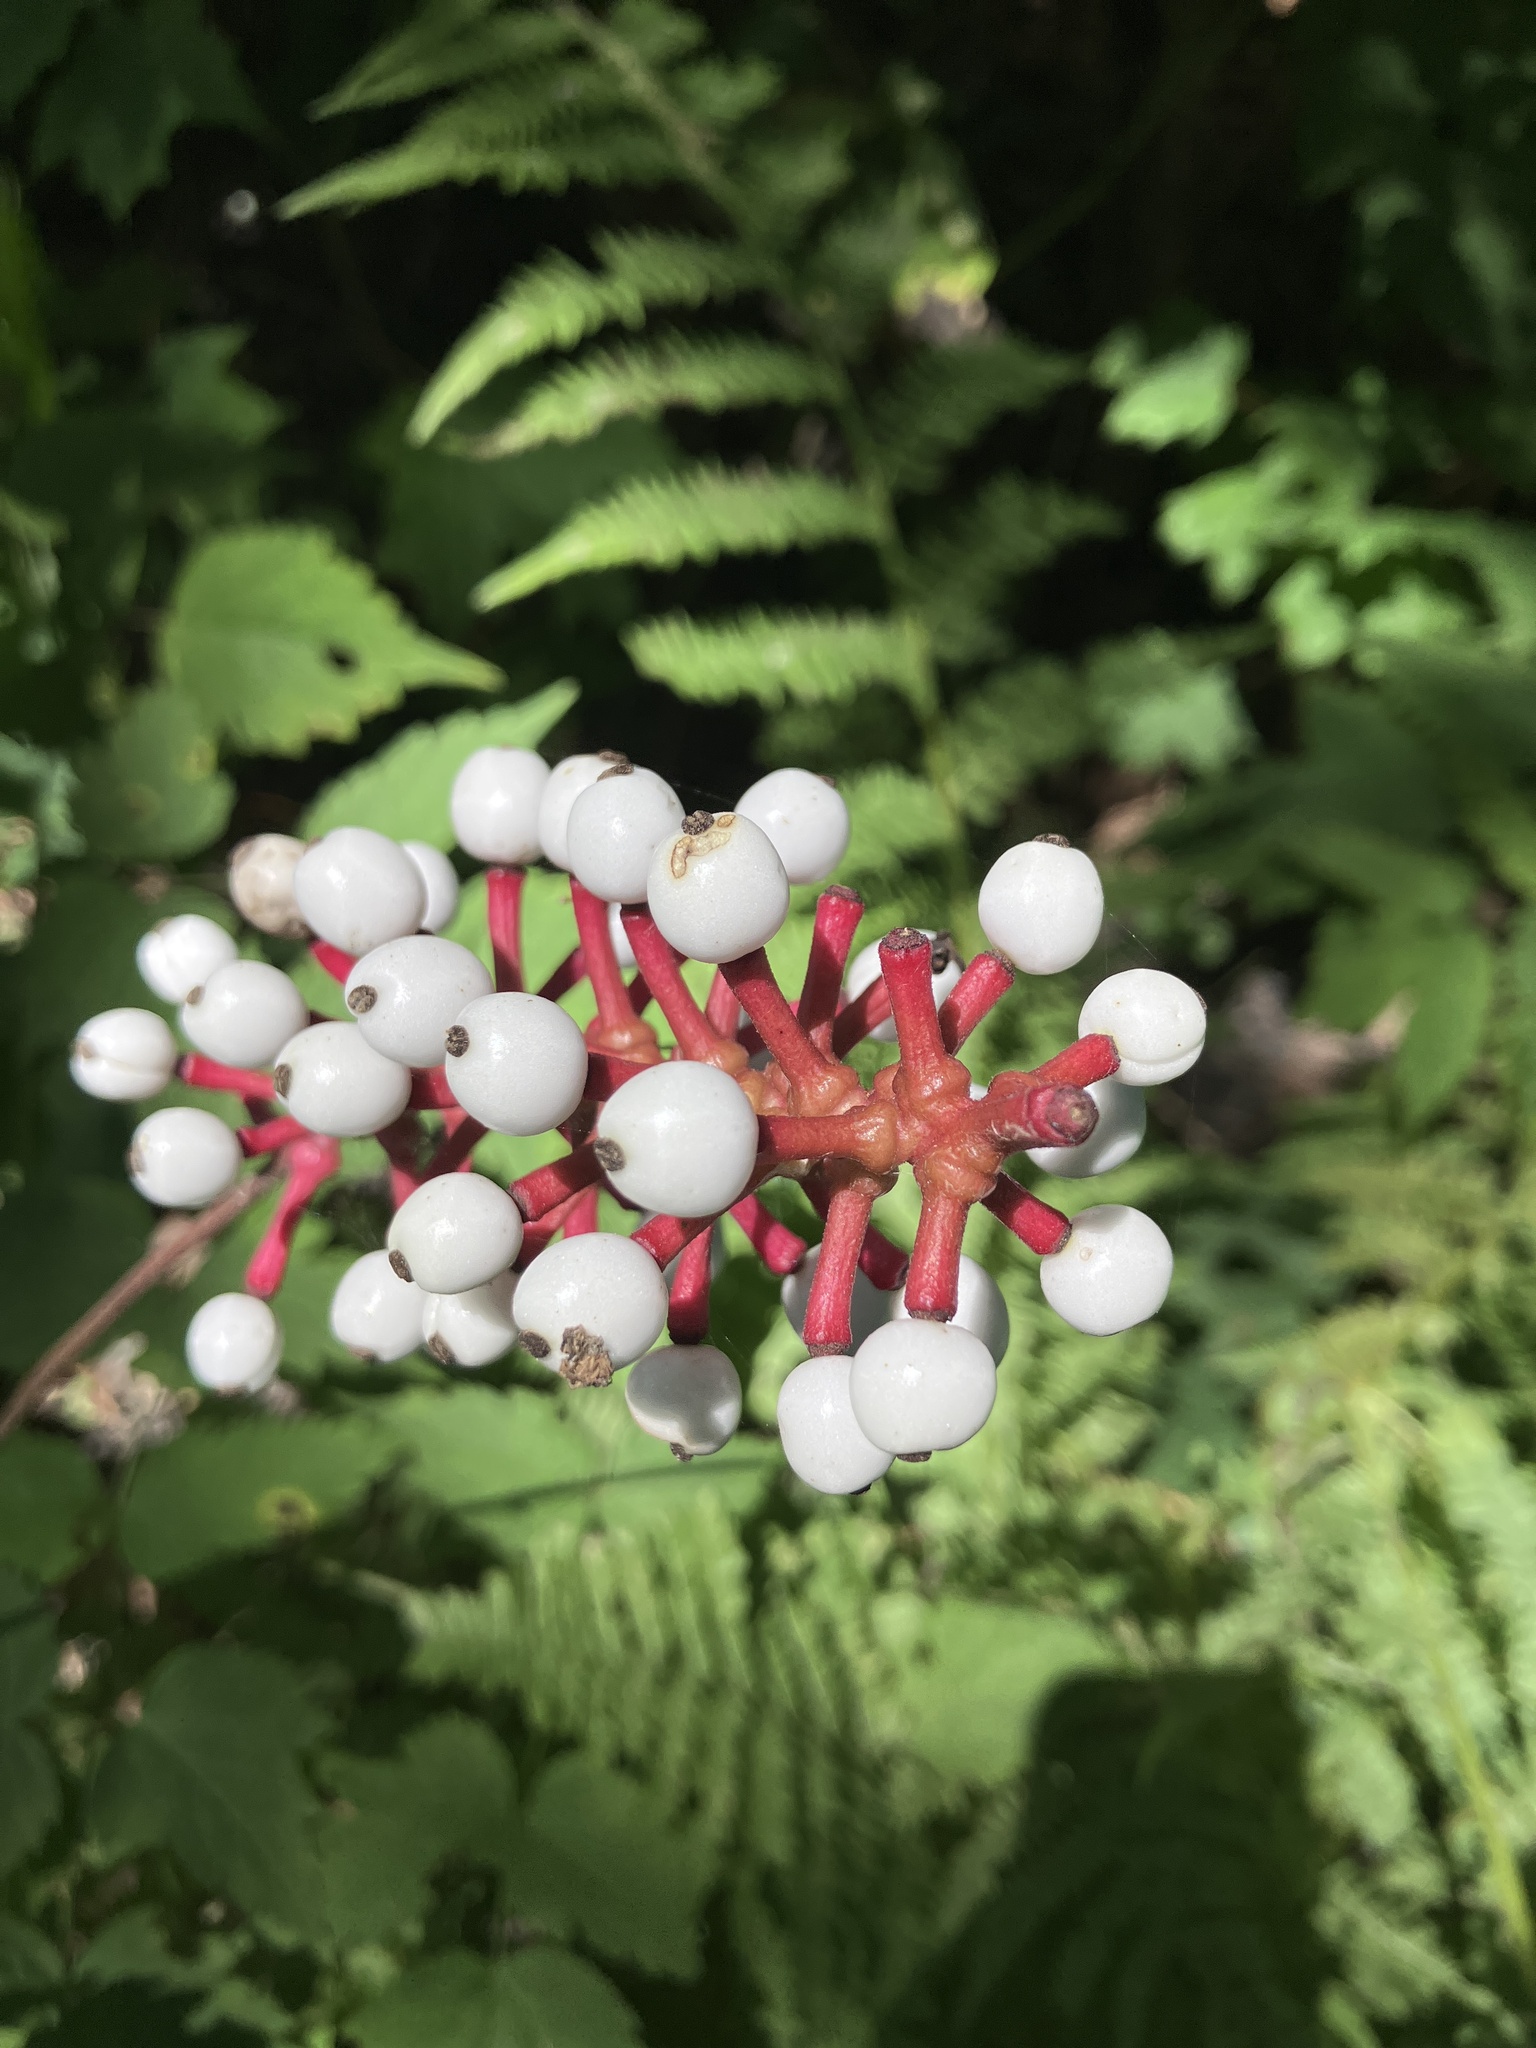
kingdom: Plantae
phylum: Tracheophyta
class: Magnoliopsida
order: Ranunculales
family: Ranunculaceae
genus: Actaea
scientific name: Actaea pachypoda
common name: Doll's-eyes
